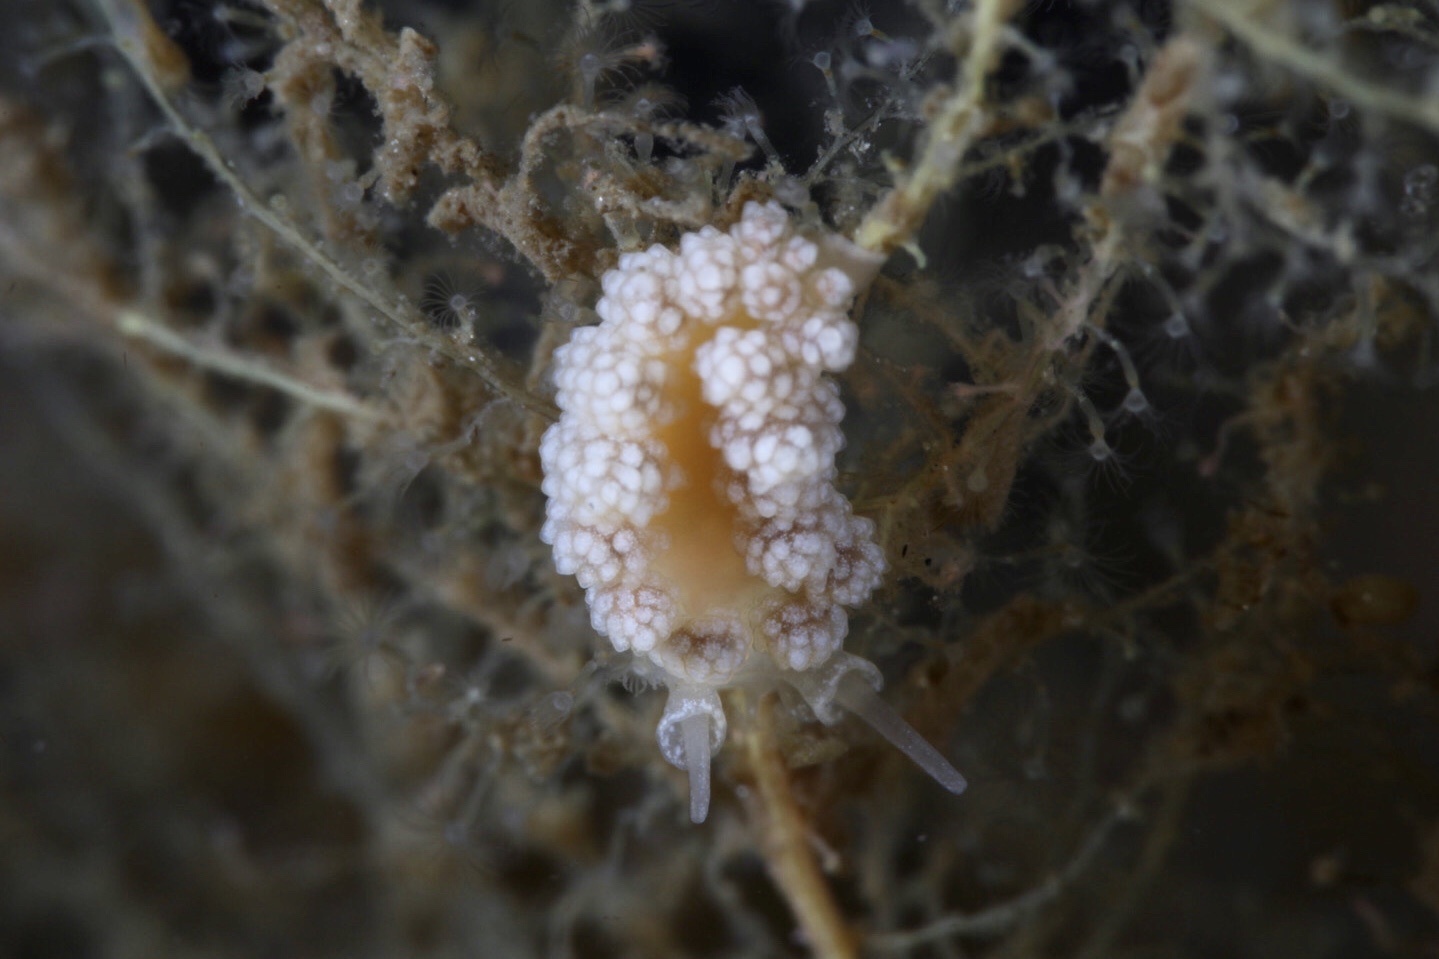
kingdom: Animalia
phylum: Mollusca
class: Gastropoda
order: Nudibranchia
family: Dotidae
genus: Doto
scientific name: Doto fragilis
